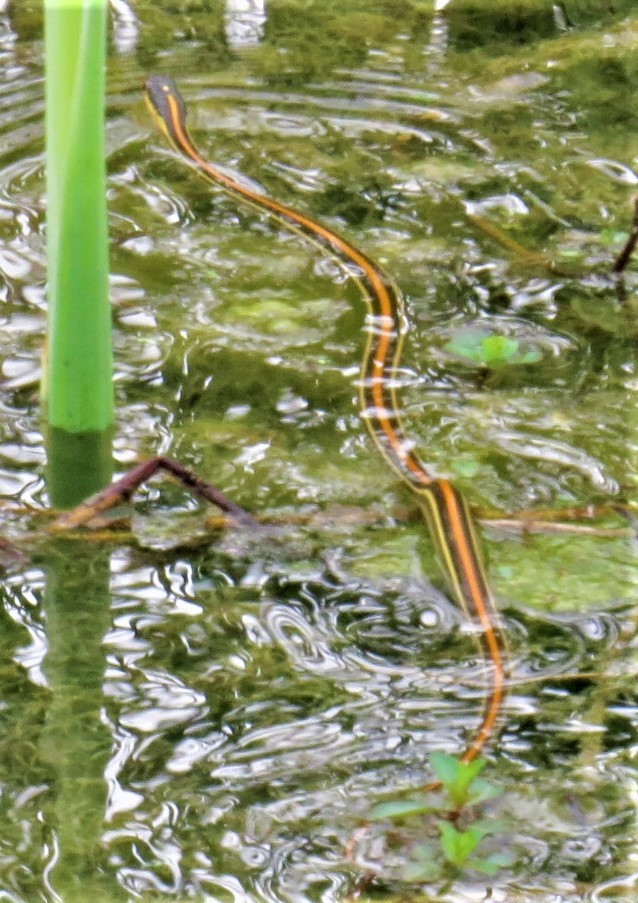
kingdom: Animalia
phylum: Chordata
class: Squamata
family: Colubridae
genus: Thamnophis
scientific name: Thamnophis proximus
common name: Western ribbon snake
